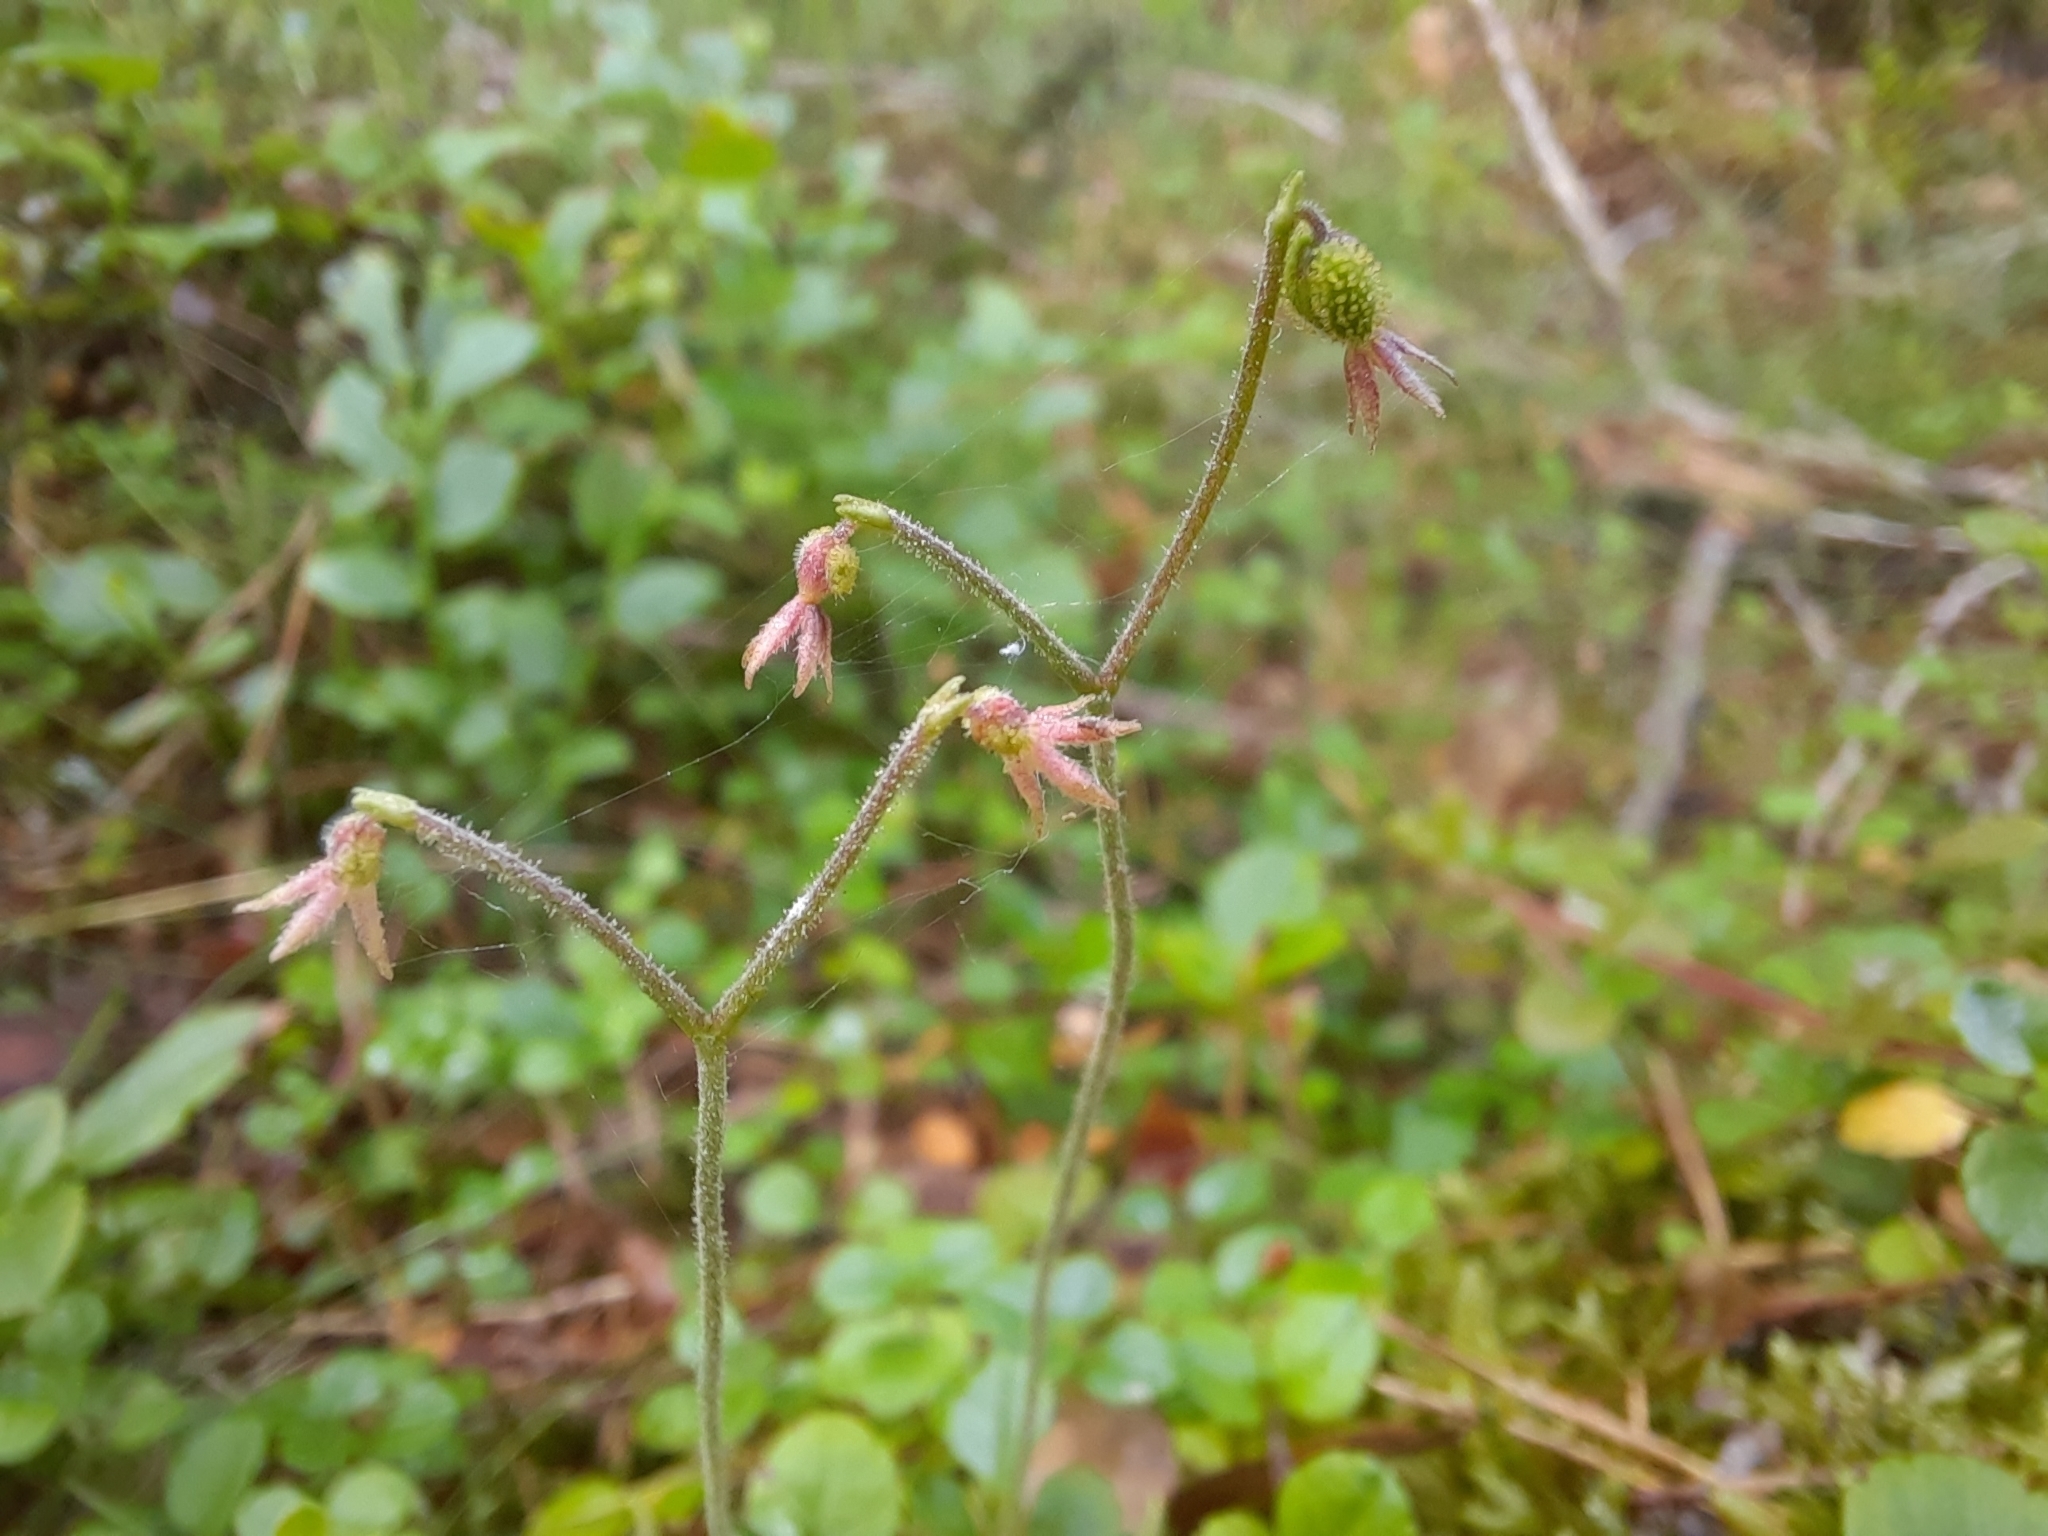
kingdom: Plantae
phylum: Tracheophyta
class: Magnoliopsida
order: Dipsacales
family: Caprifoliaceae
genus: Linnaea
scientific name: Linnaea borealis
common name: Twinflower
